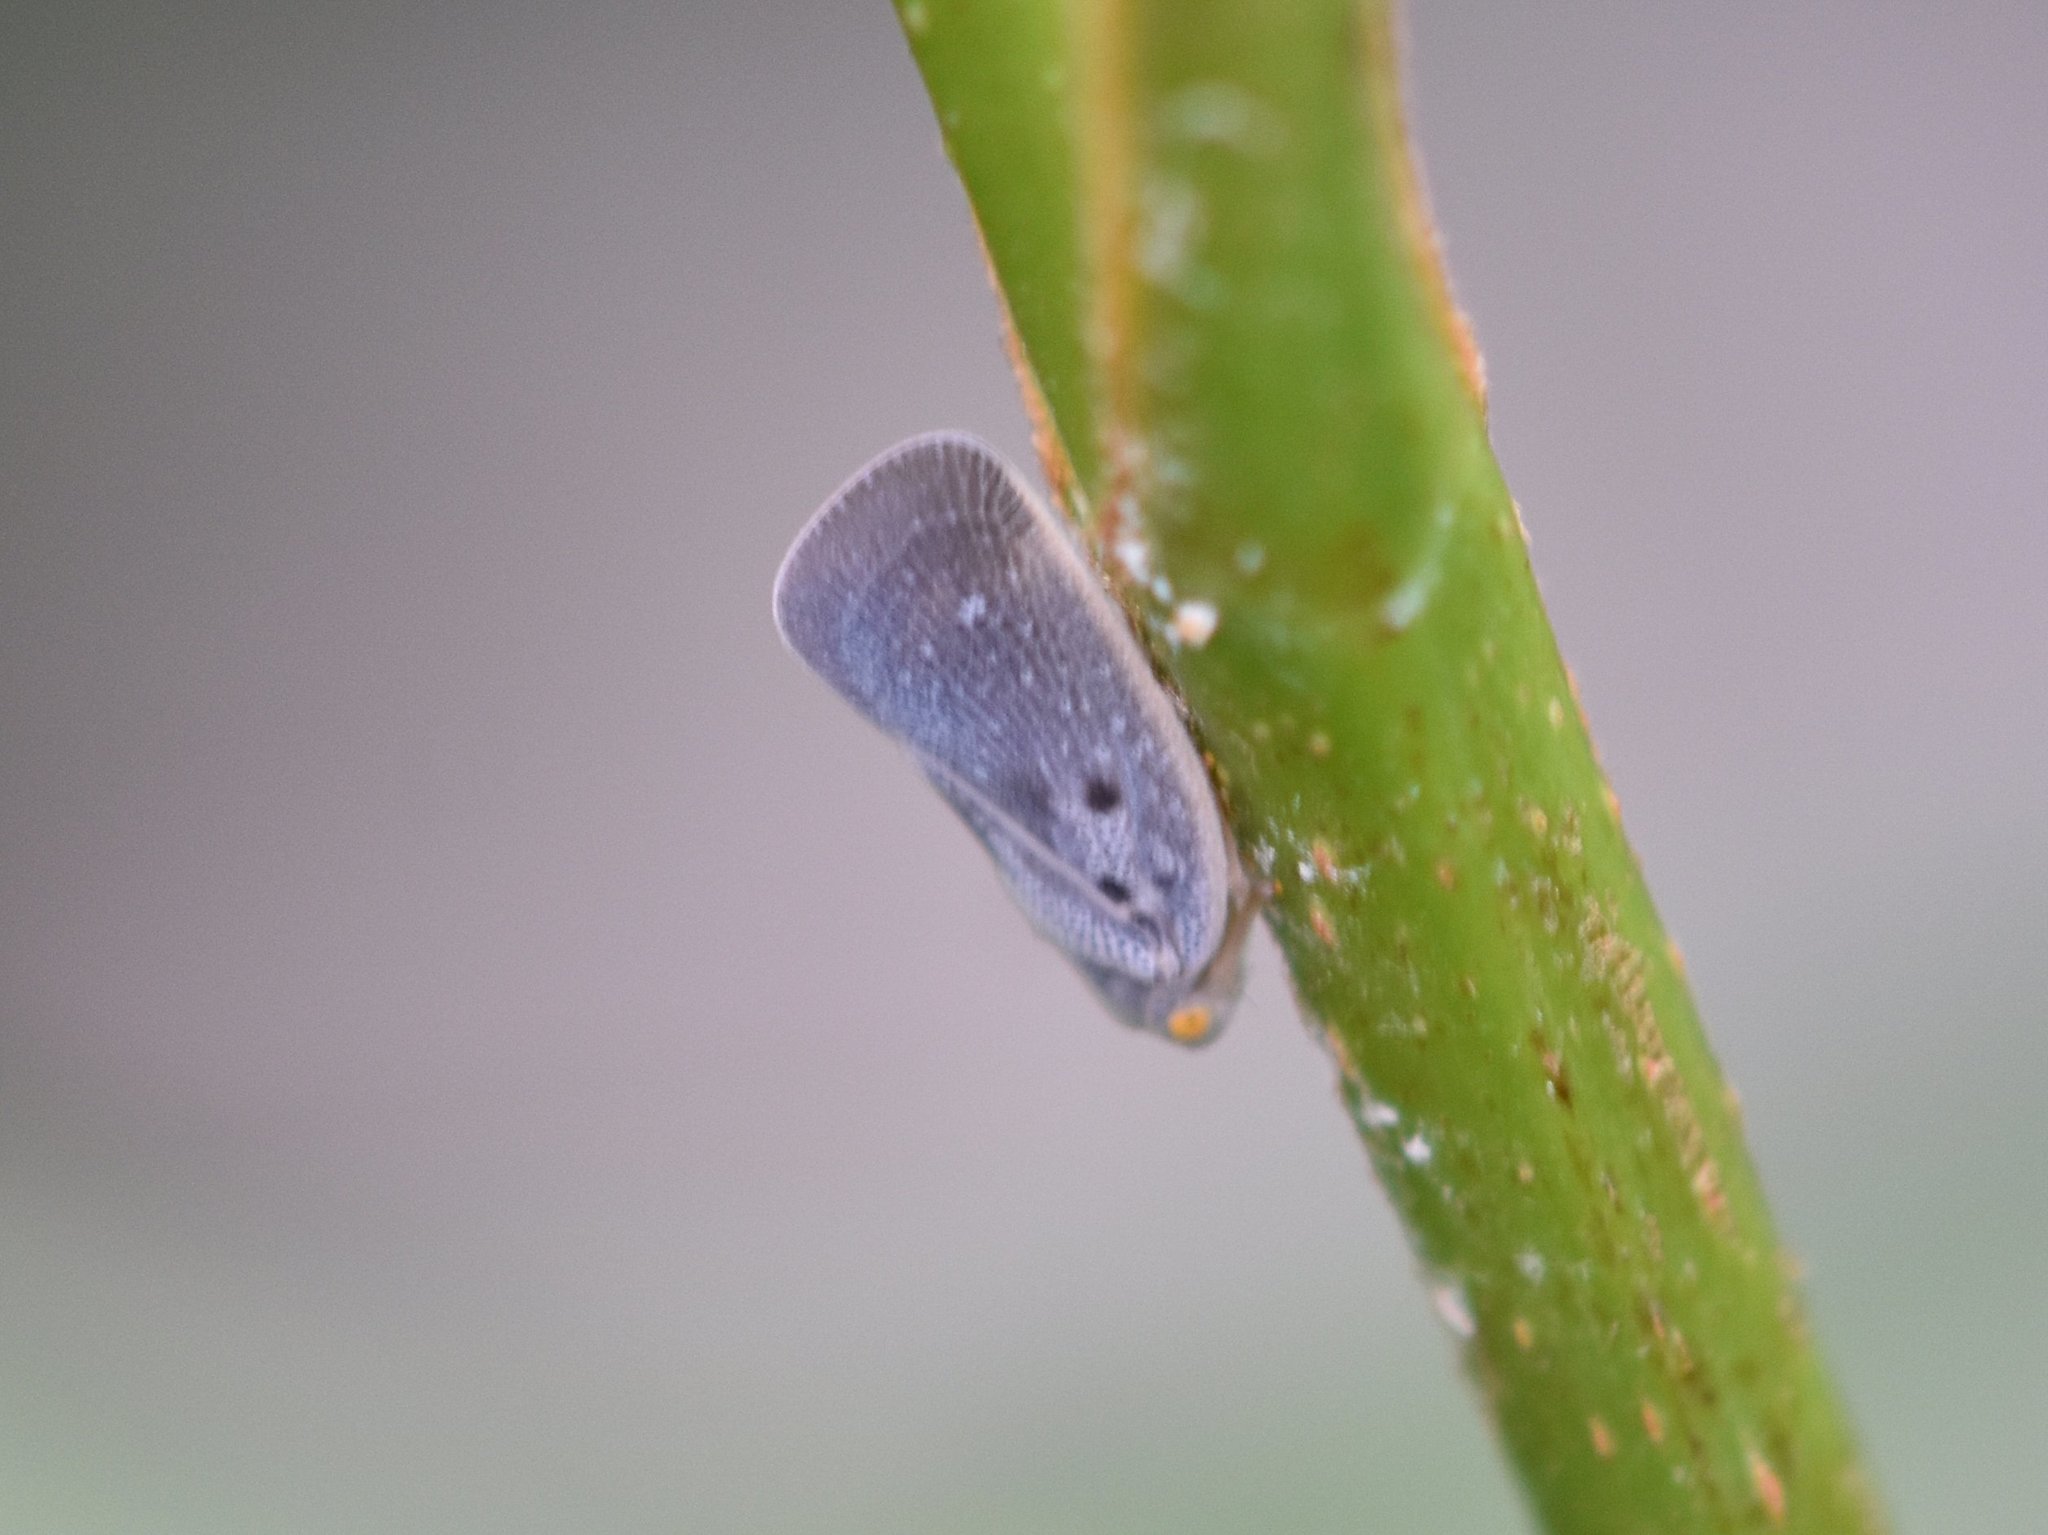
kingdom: Animalia
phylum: Arthropoda
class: Insecta
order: Hemiptera
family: Flatidae
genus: Metcalfa
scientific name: Metcalfa pruinosa
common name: Citrus flatid planthopper
